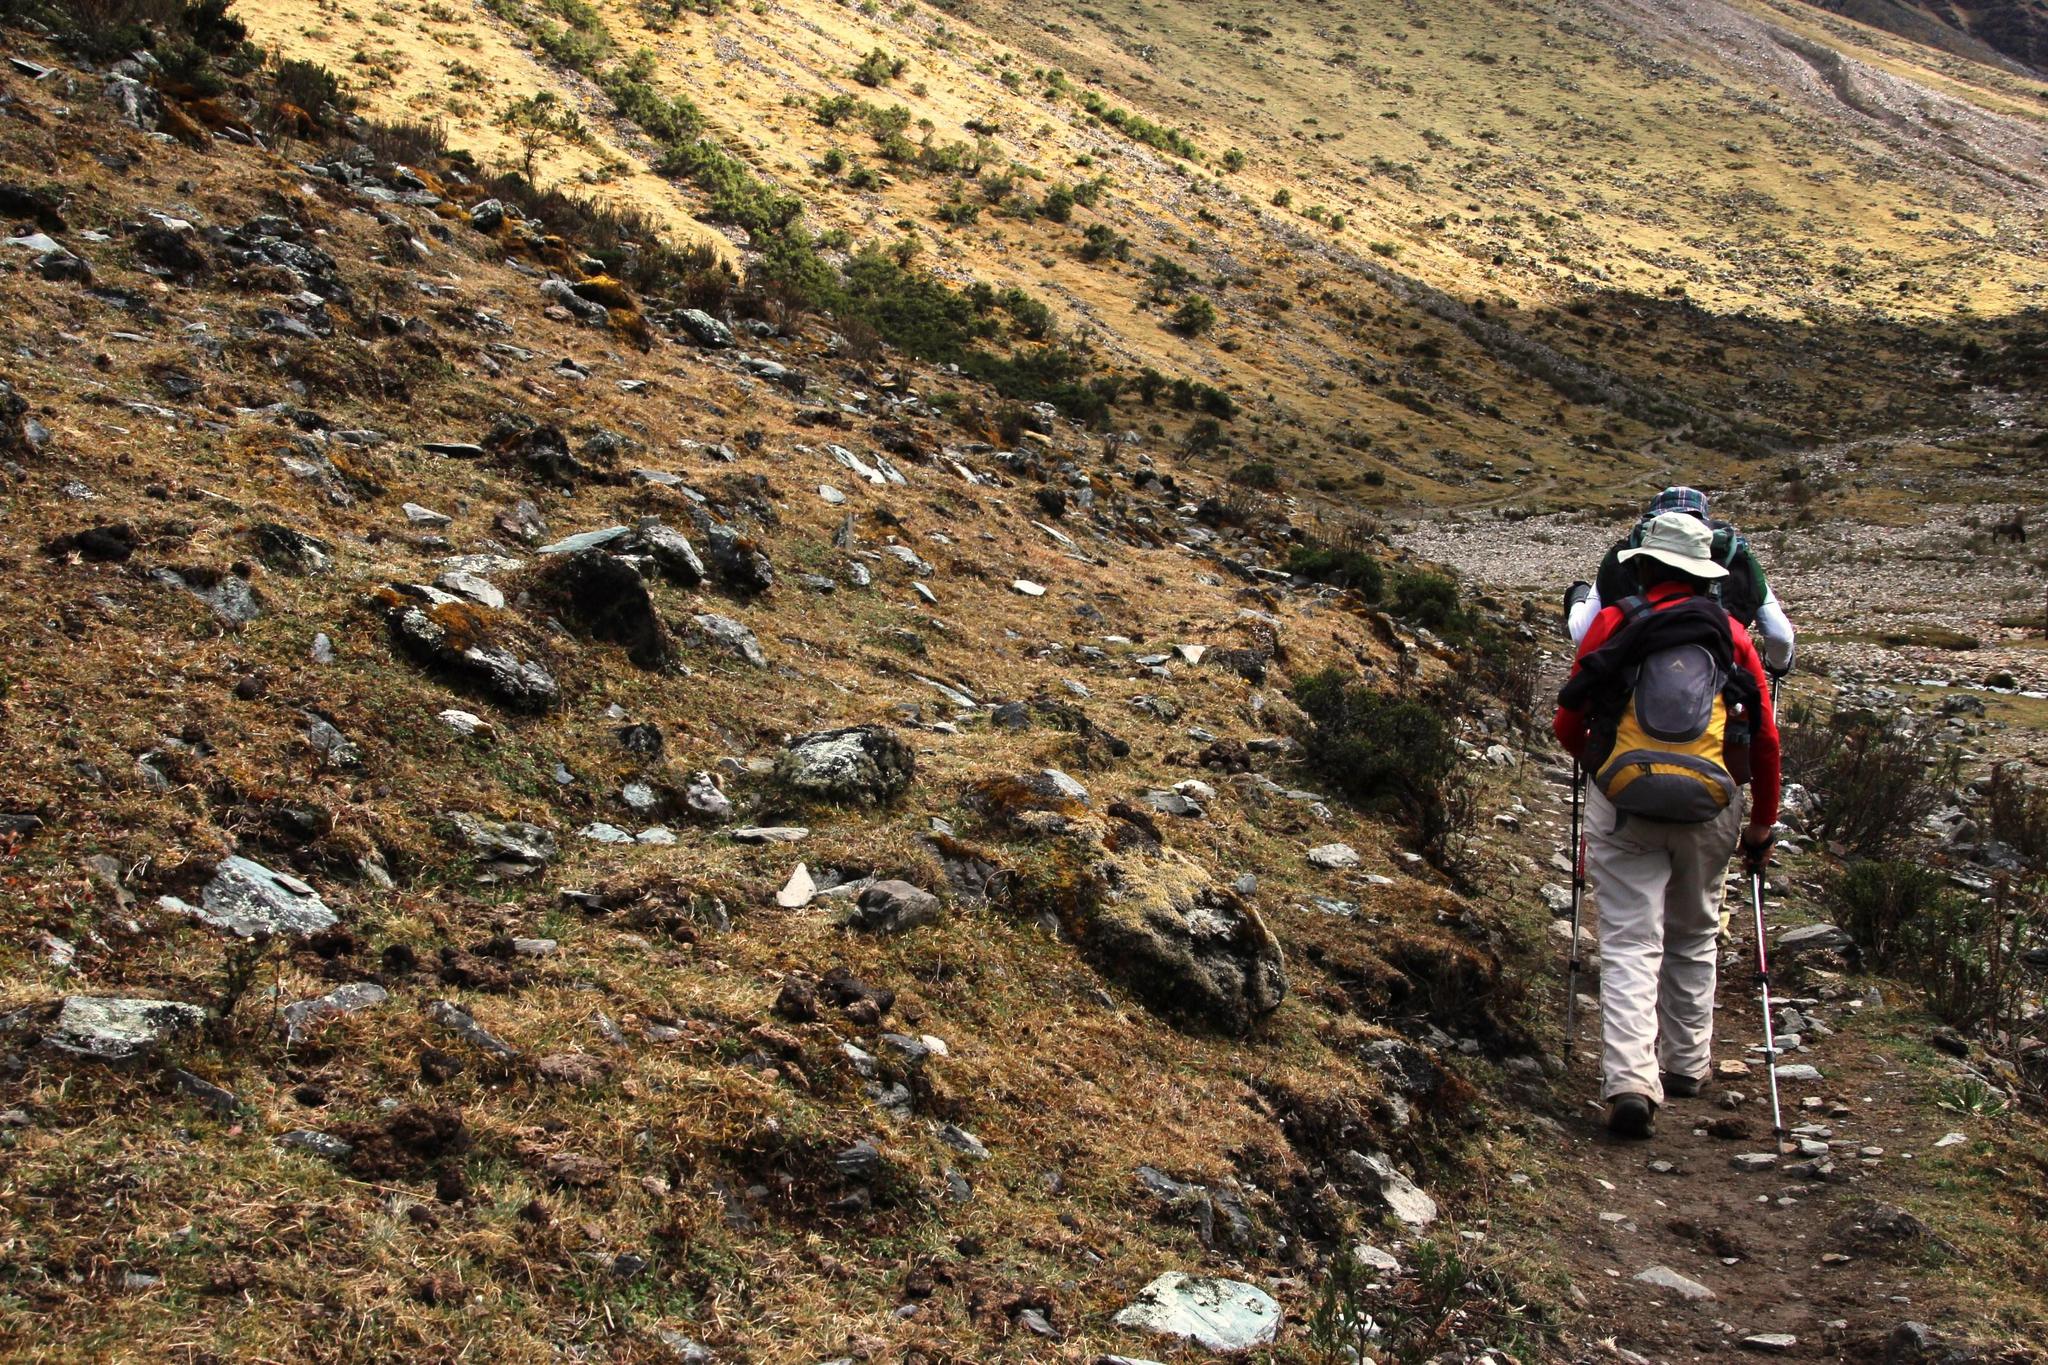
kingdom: Plantae
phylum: Tracheophyta
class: Magnoliopsida
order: Apiales
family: Apiaceae
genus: Azorella
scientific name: Azorella multifida
